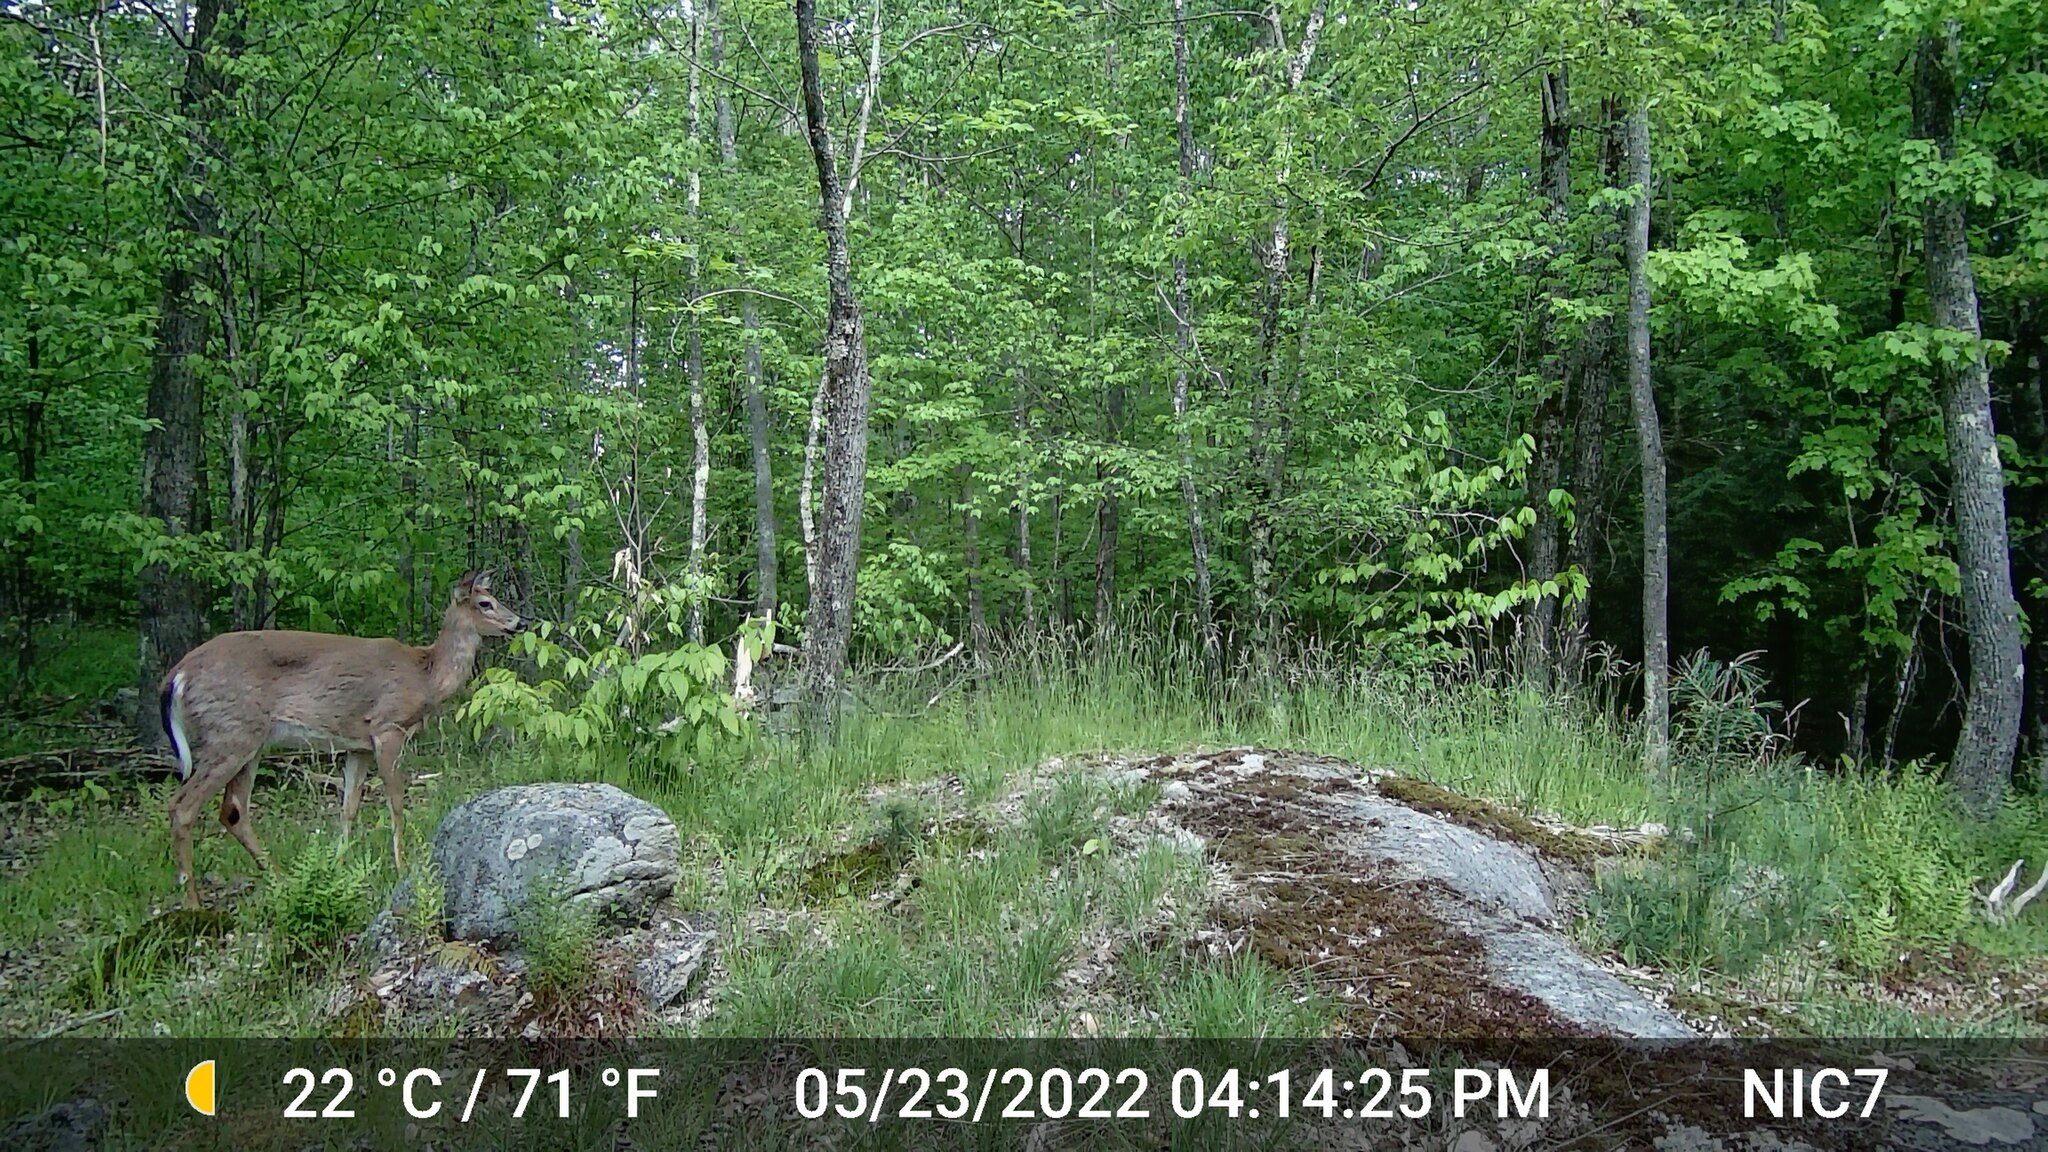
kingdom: Animalia
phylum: Chordata
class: Mammalia
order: Artiodactyla
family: Cervidae
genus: Odocoileus
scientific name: Odocoileus virginianus
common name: White-tailed deer
